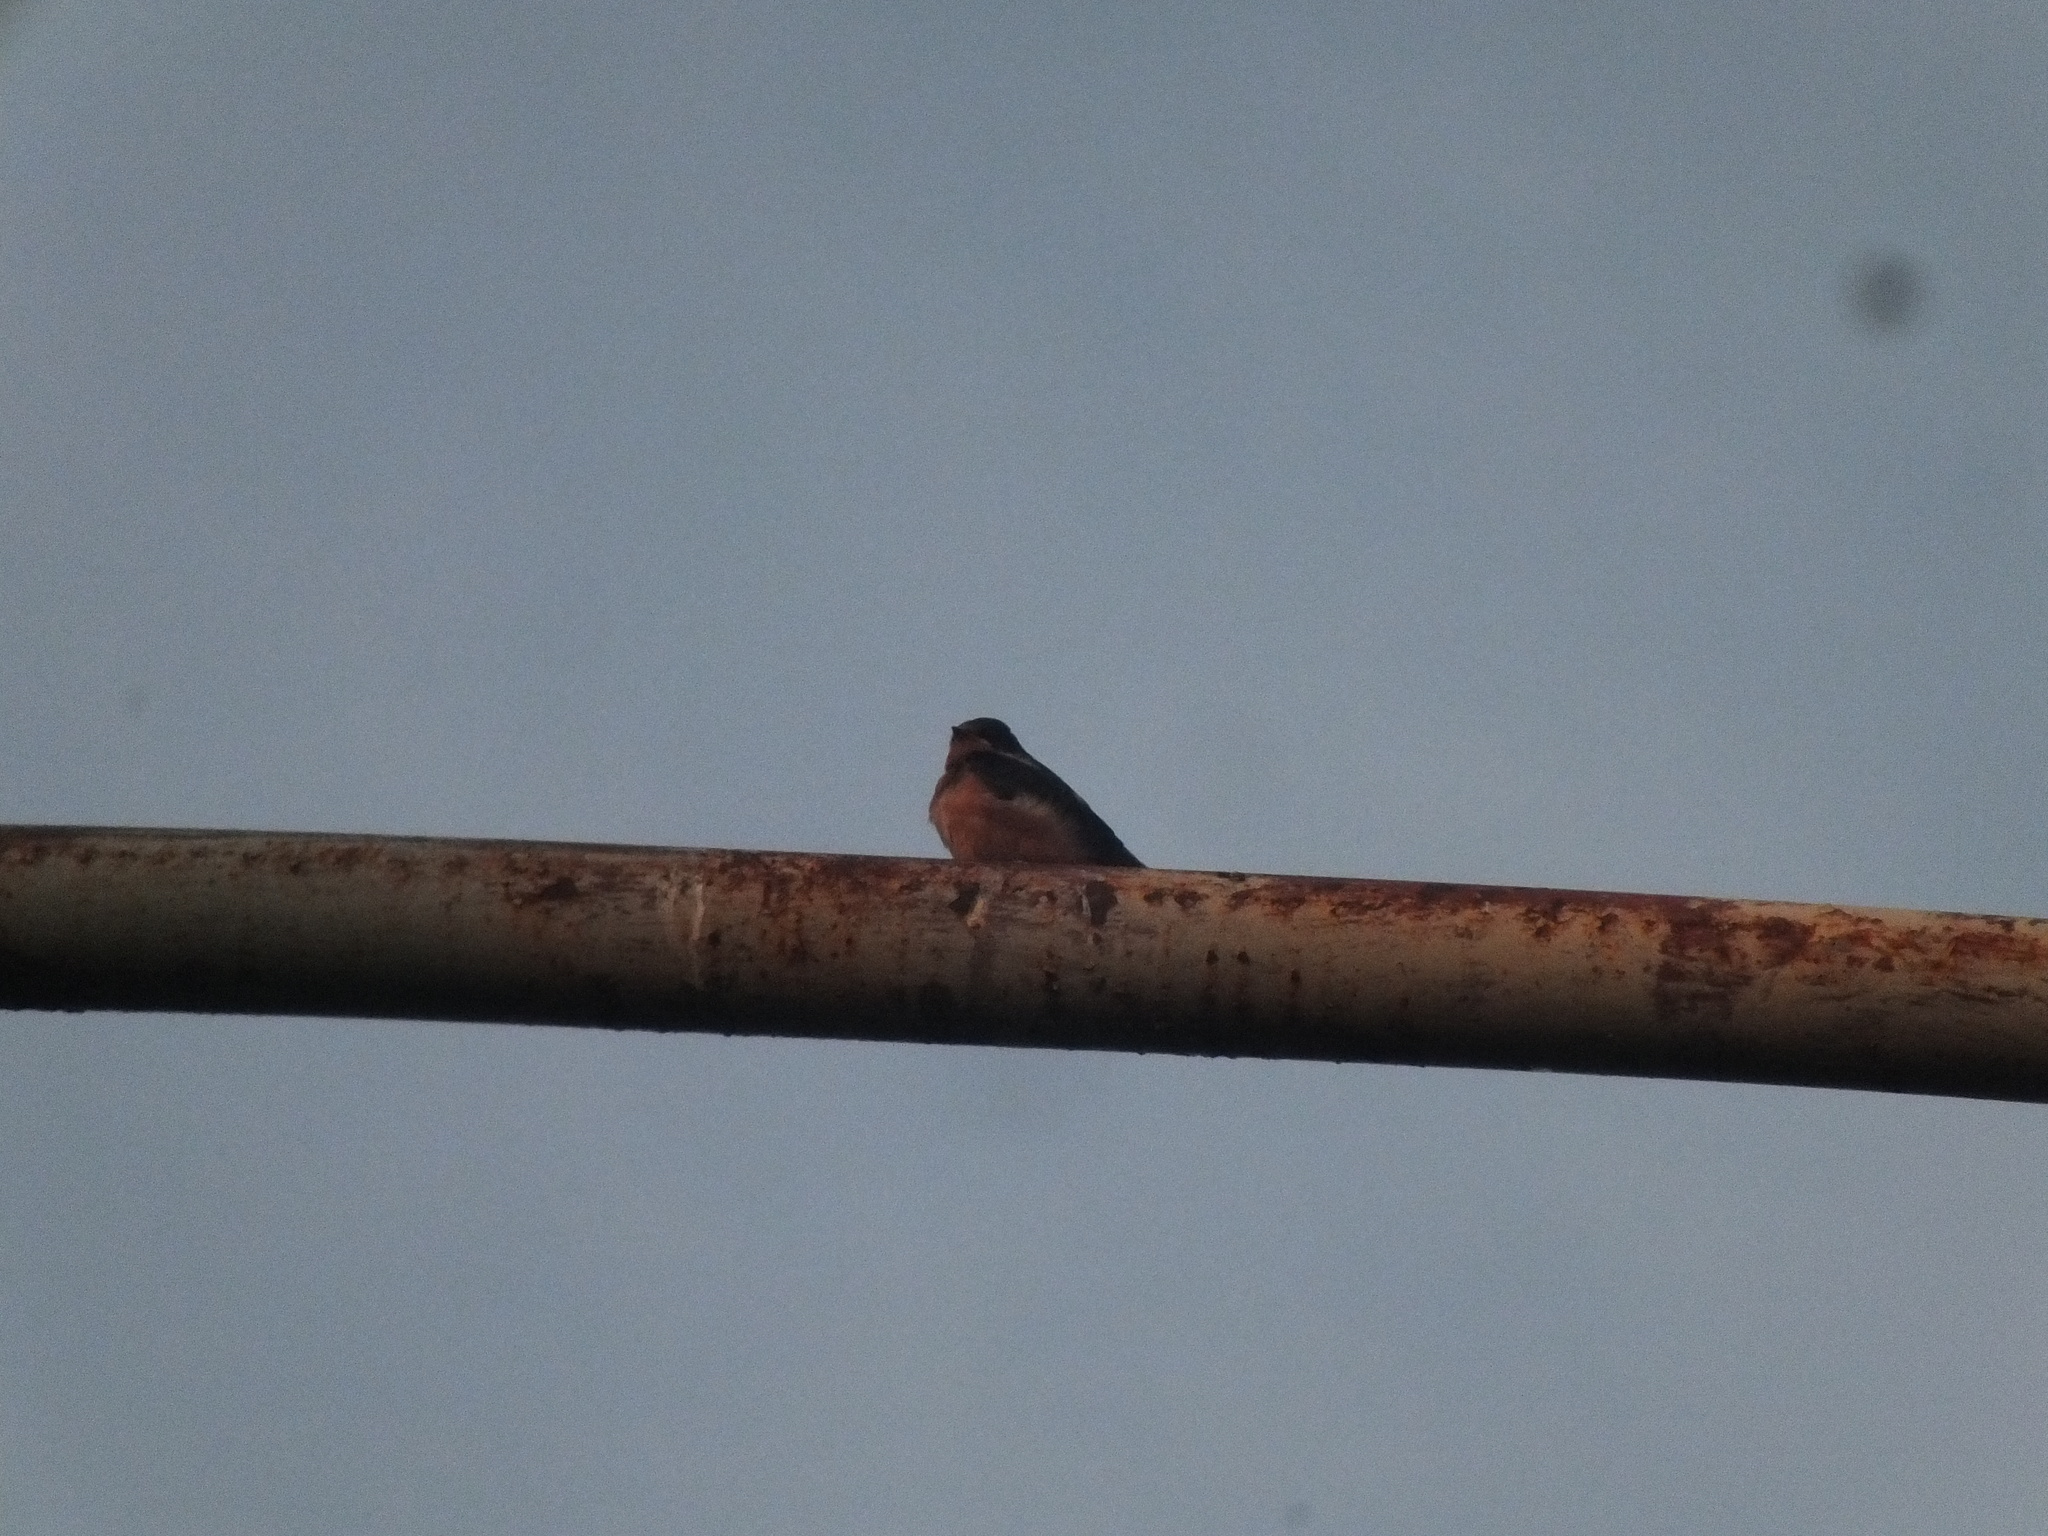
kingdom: Animalia
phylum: Chordata
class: Aves
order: Passeriformes
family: Hirundinidae
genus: Hirundo
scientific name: Hirundo rustica
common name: Barn swallow
